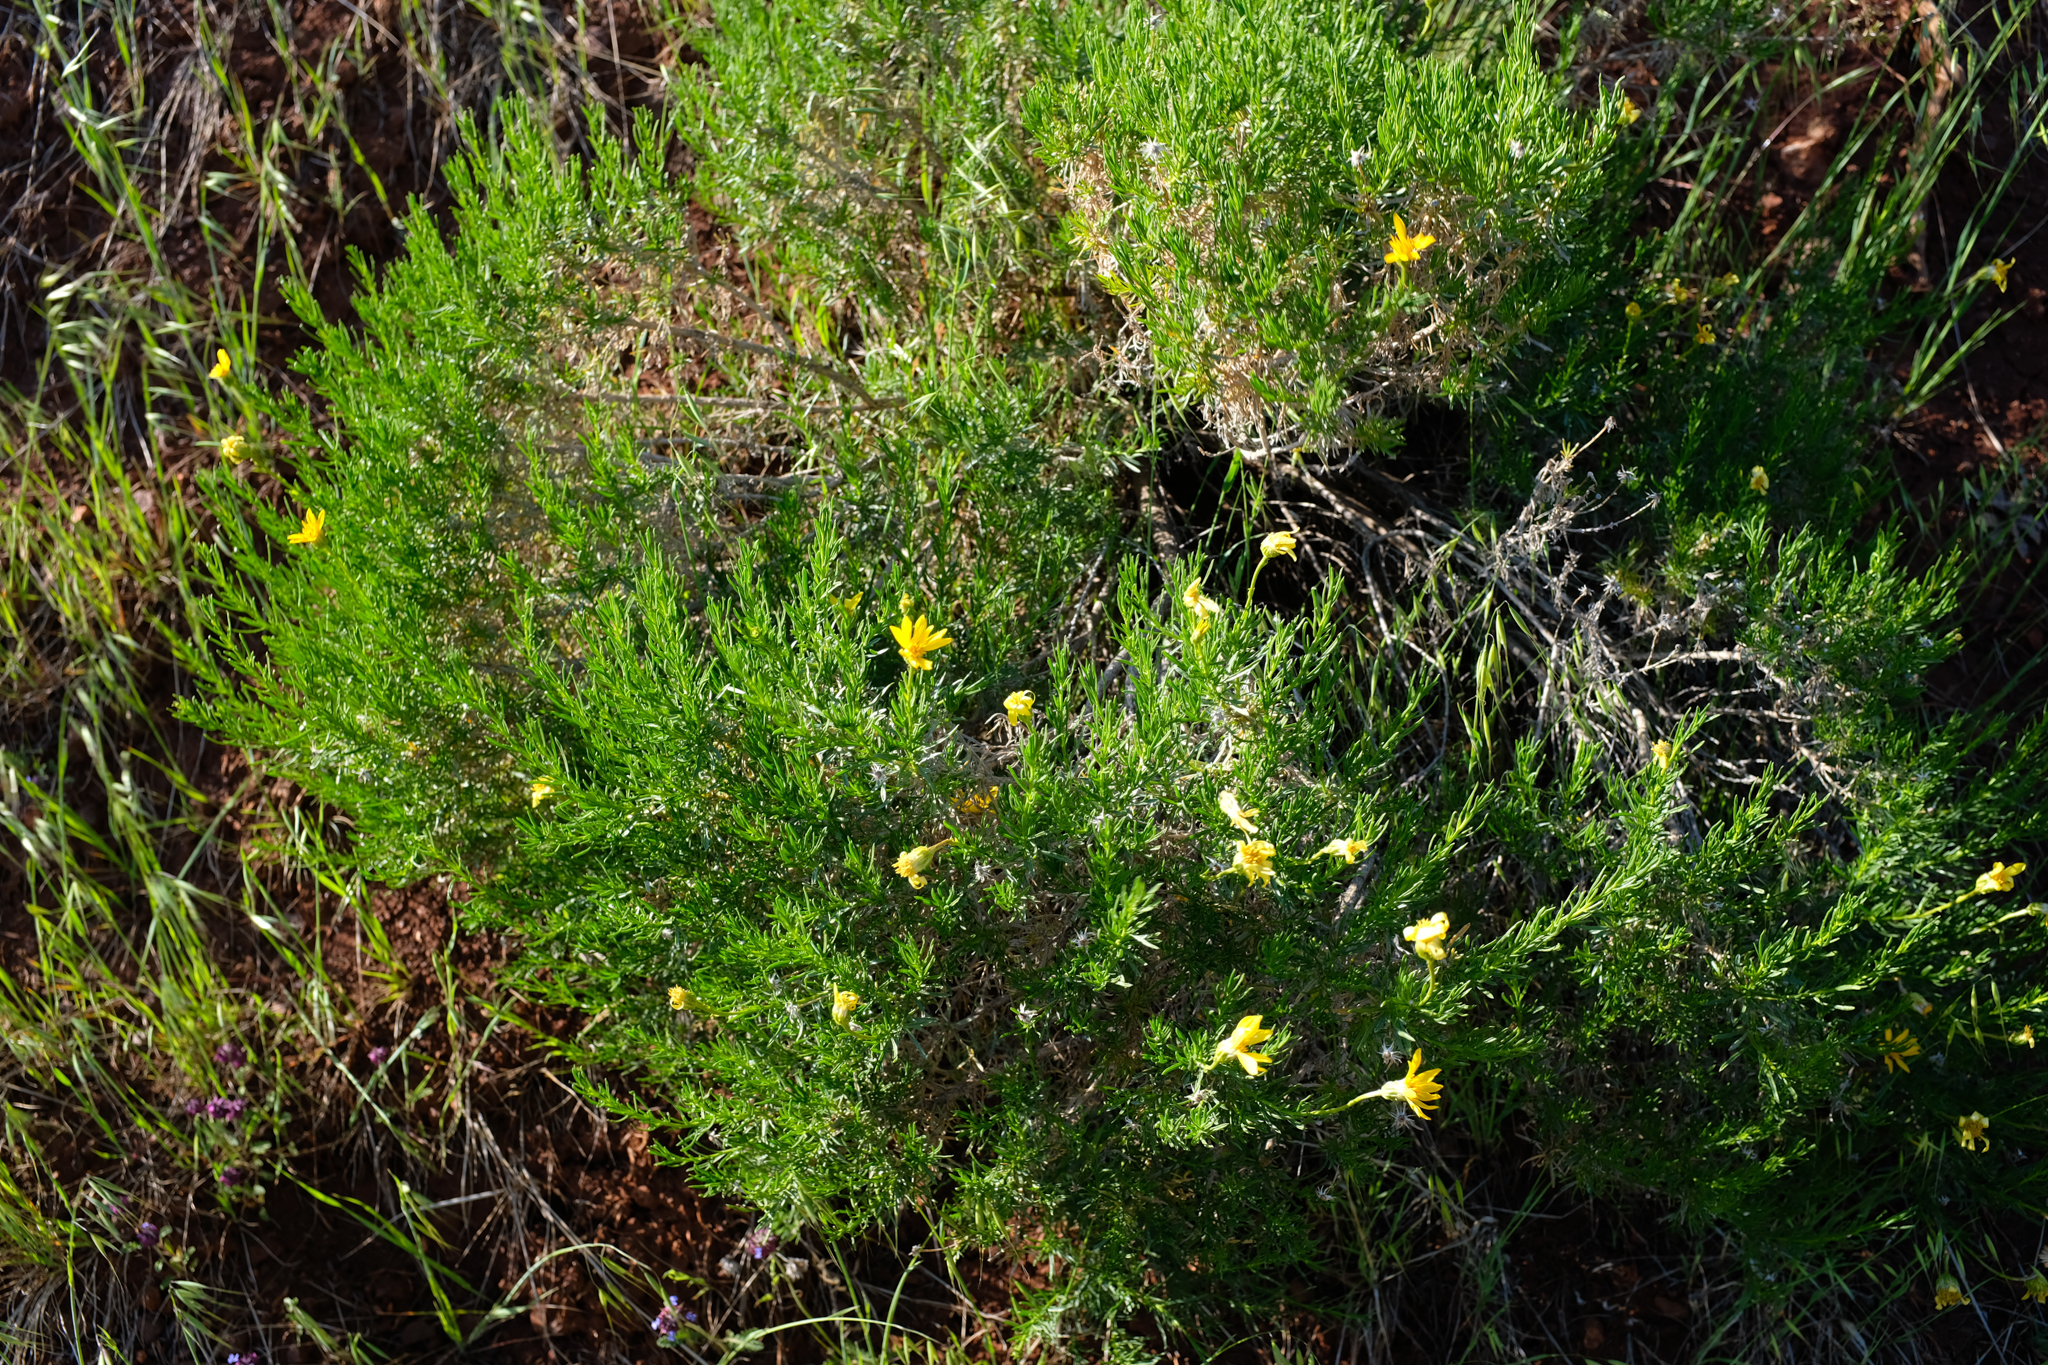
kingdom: Plantae
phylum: Tracheophyta
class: Magnoliopsida
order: Asterales
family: Asteraceae
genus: Ericameria
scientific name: Ericameria linearifolia
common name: Interior goldenbush
